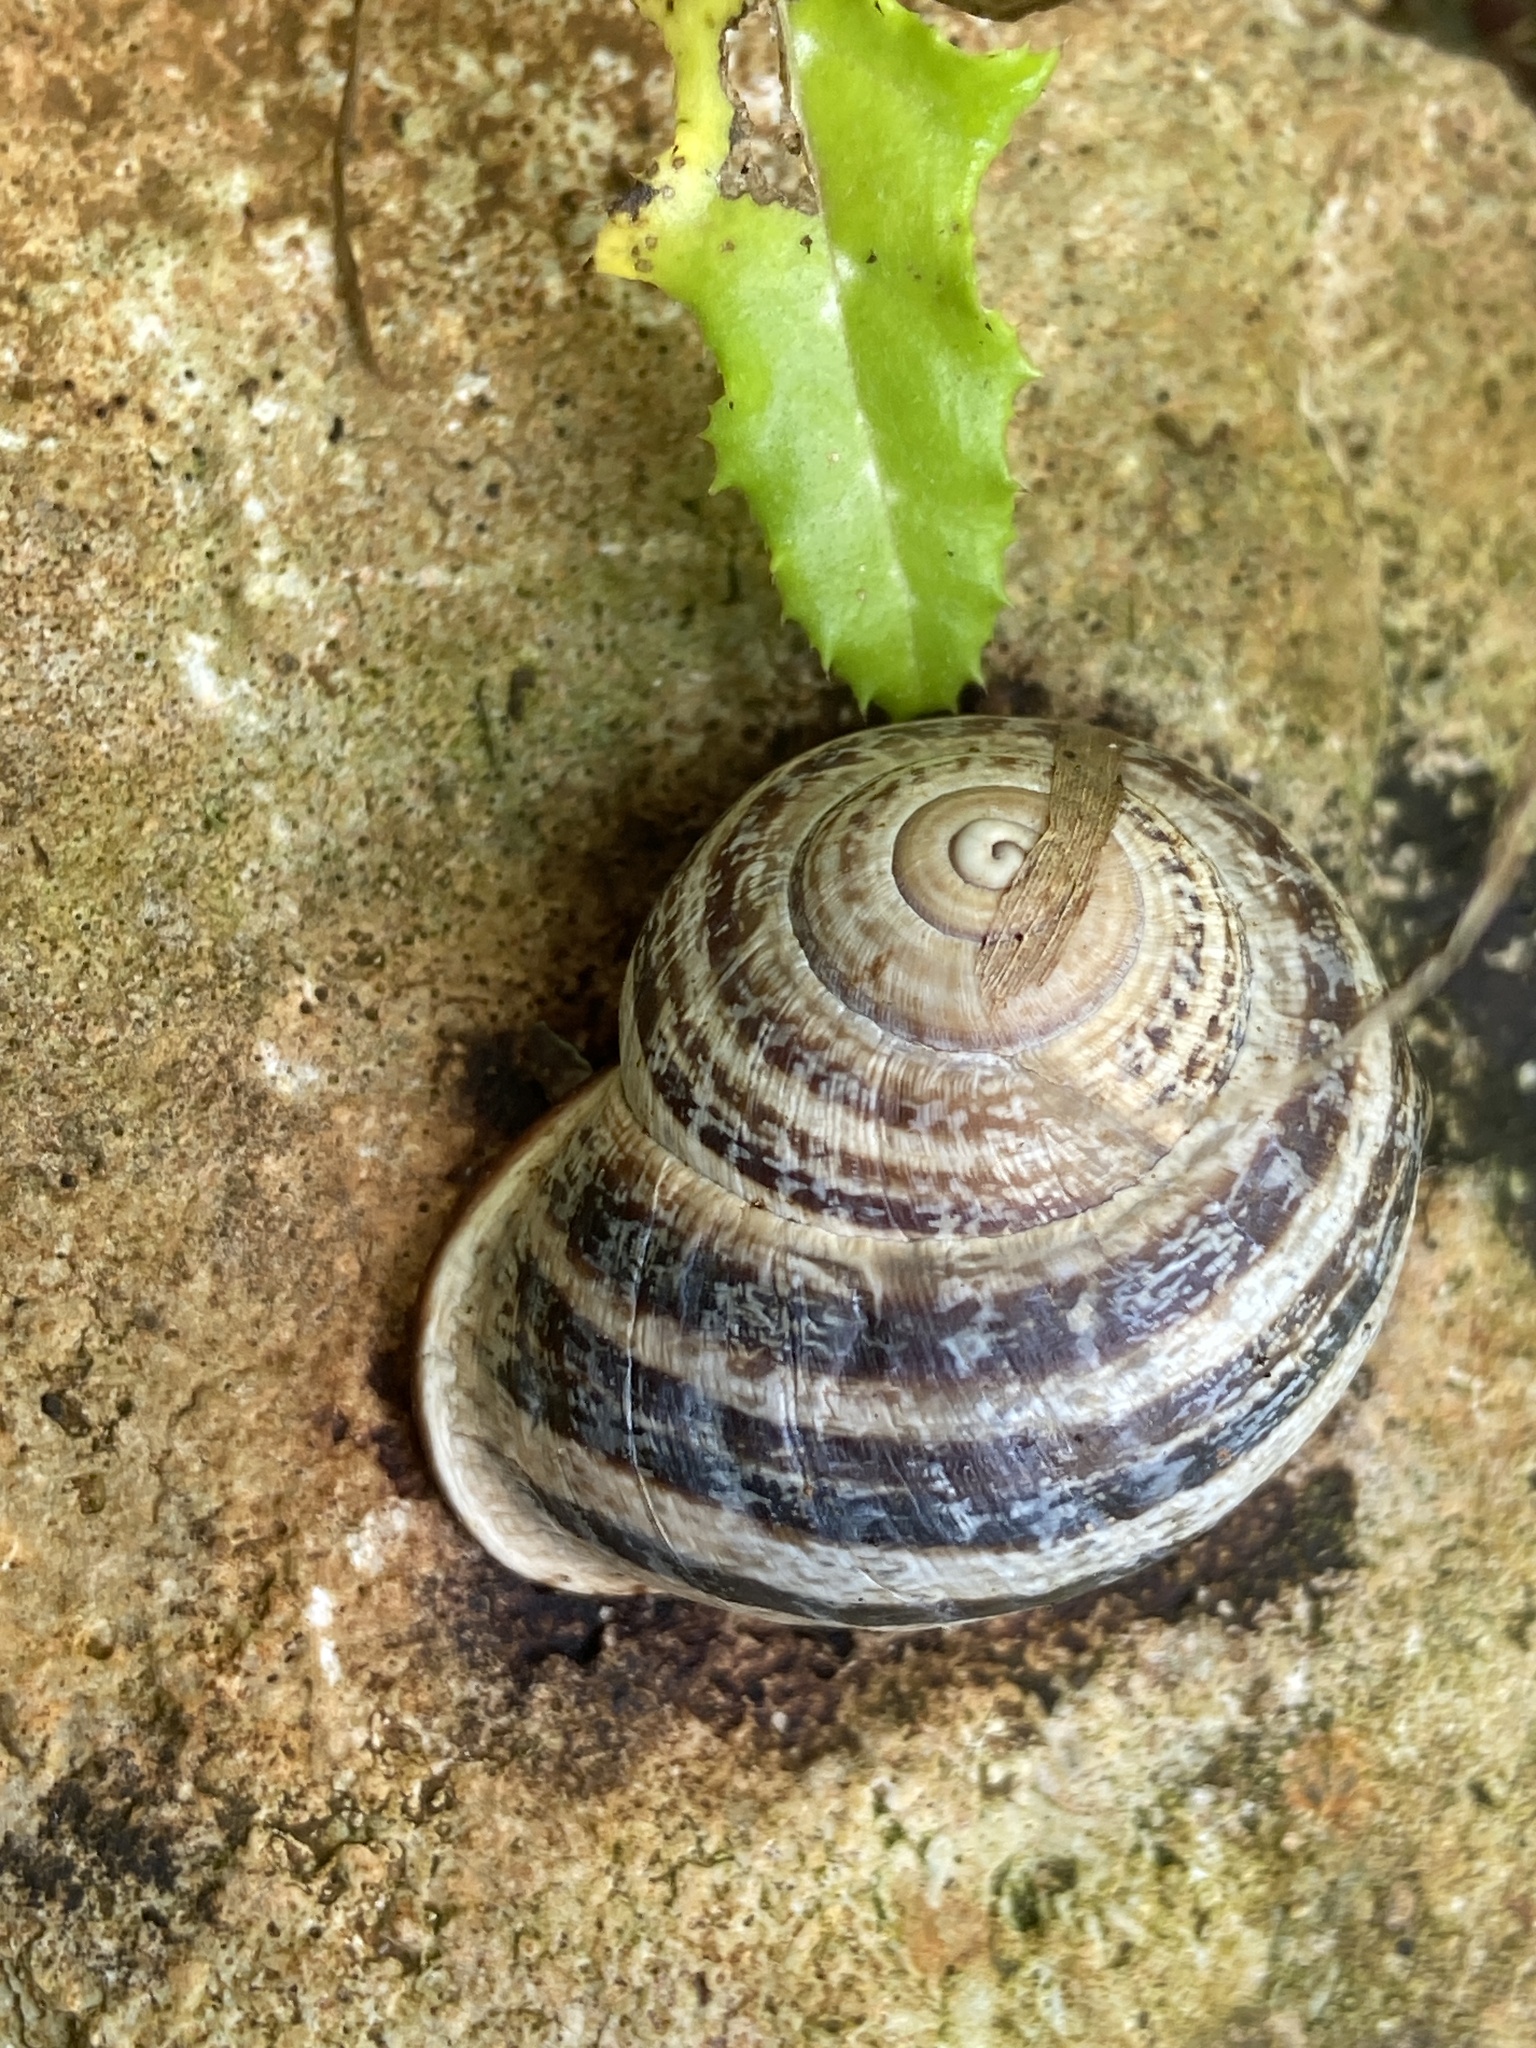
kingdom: Animalia
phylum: Mollusca
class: Gastropoda
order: Stylommatophora
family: Helicidae
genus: Otala
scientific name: Otala lactea
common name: Milk snail
